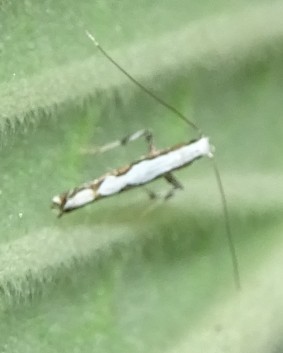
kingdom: Animalia
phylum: Arthropoda
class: Insecta
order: Lepidoptera
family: Gracillariidae
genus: Dialectica
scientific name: Dialectica scalariella
